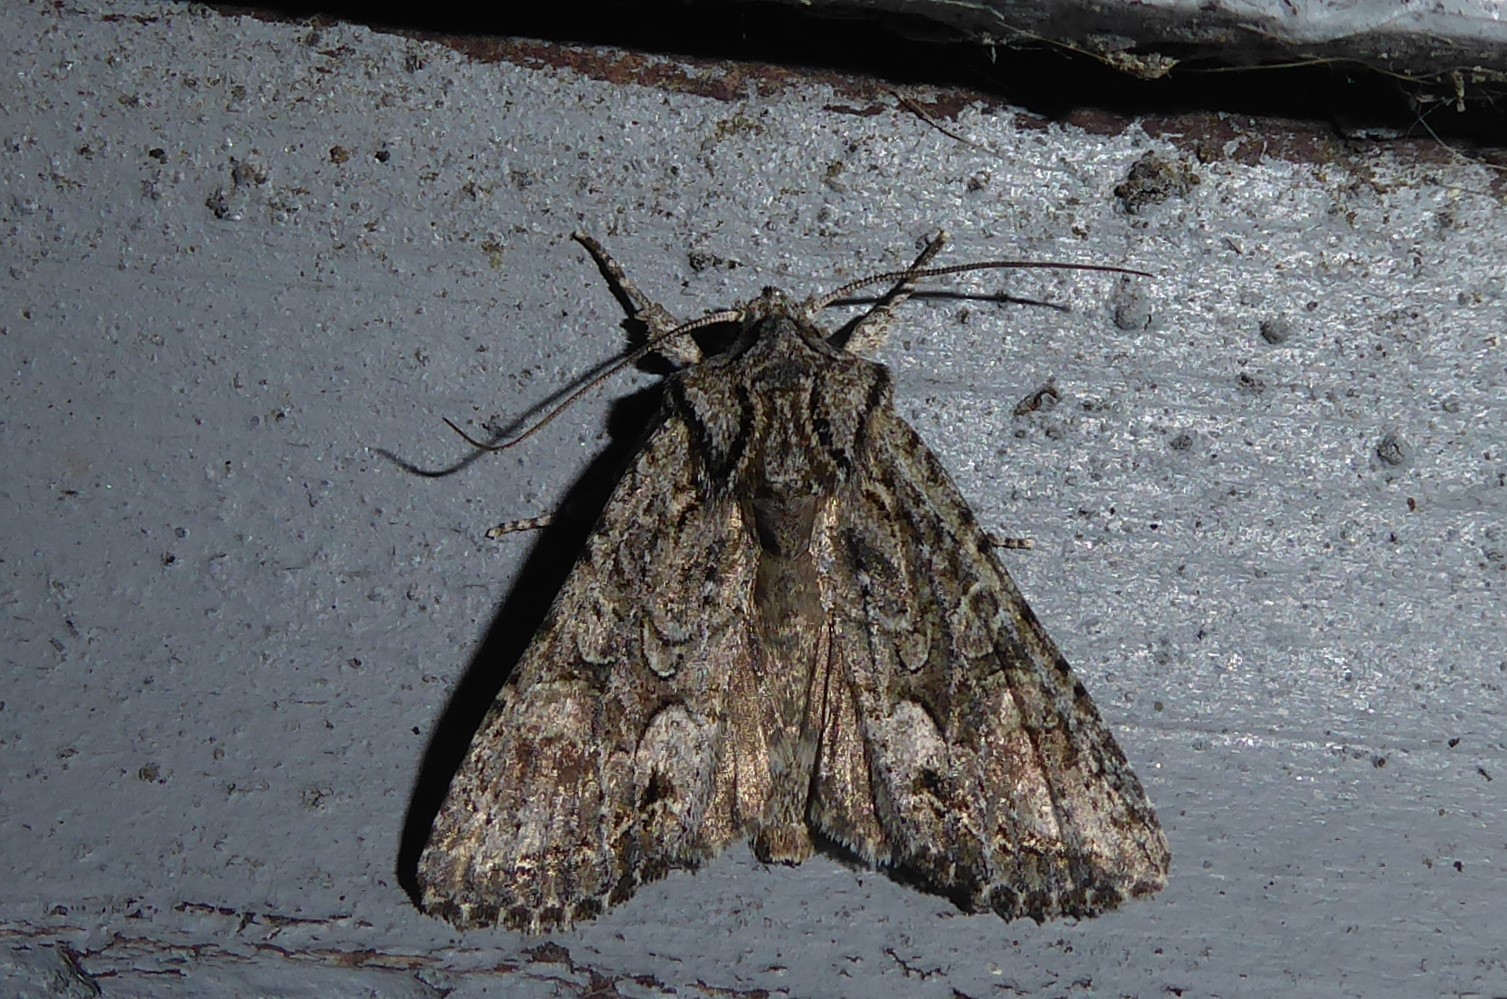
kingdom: Animalia
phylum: Arthropoda
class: Insecta
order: Lepidoptera
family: Noctuidae
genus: Ichneutica
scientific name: Ichneutica mutans
